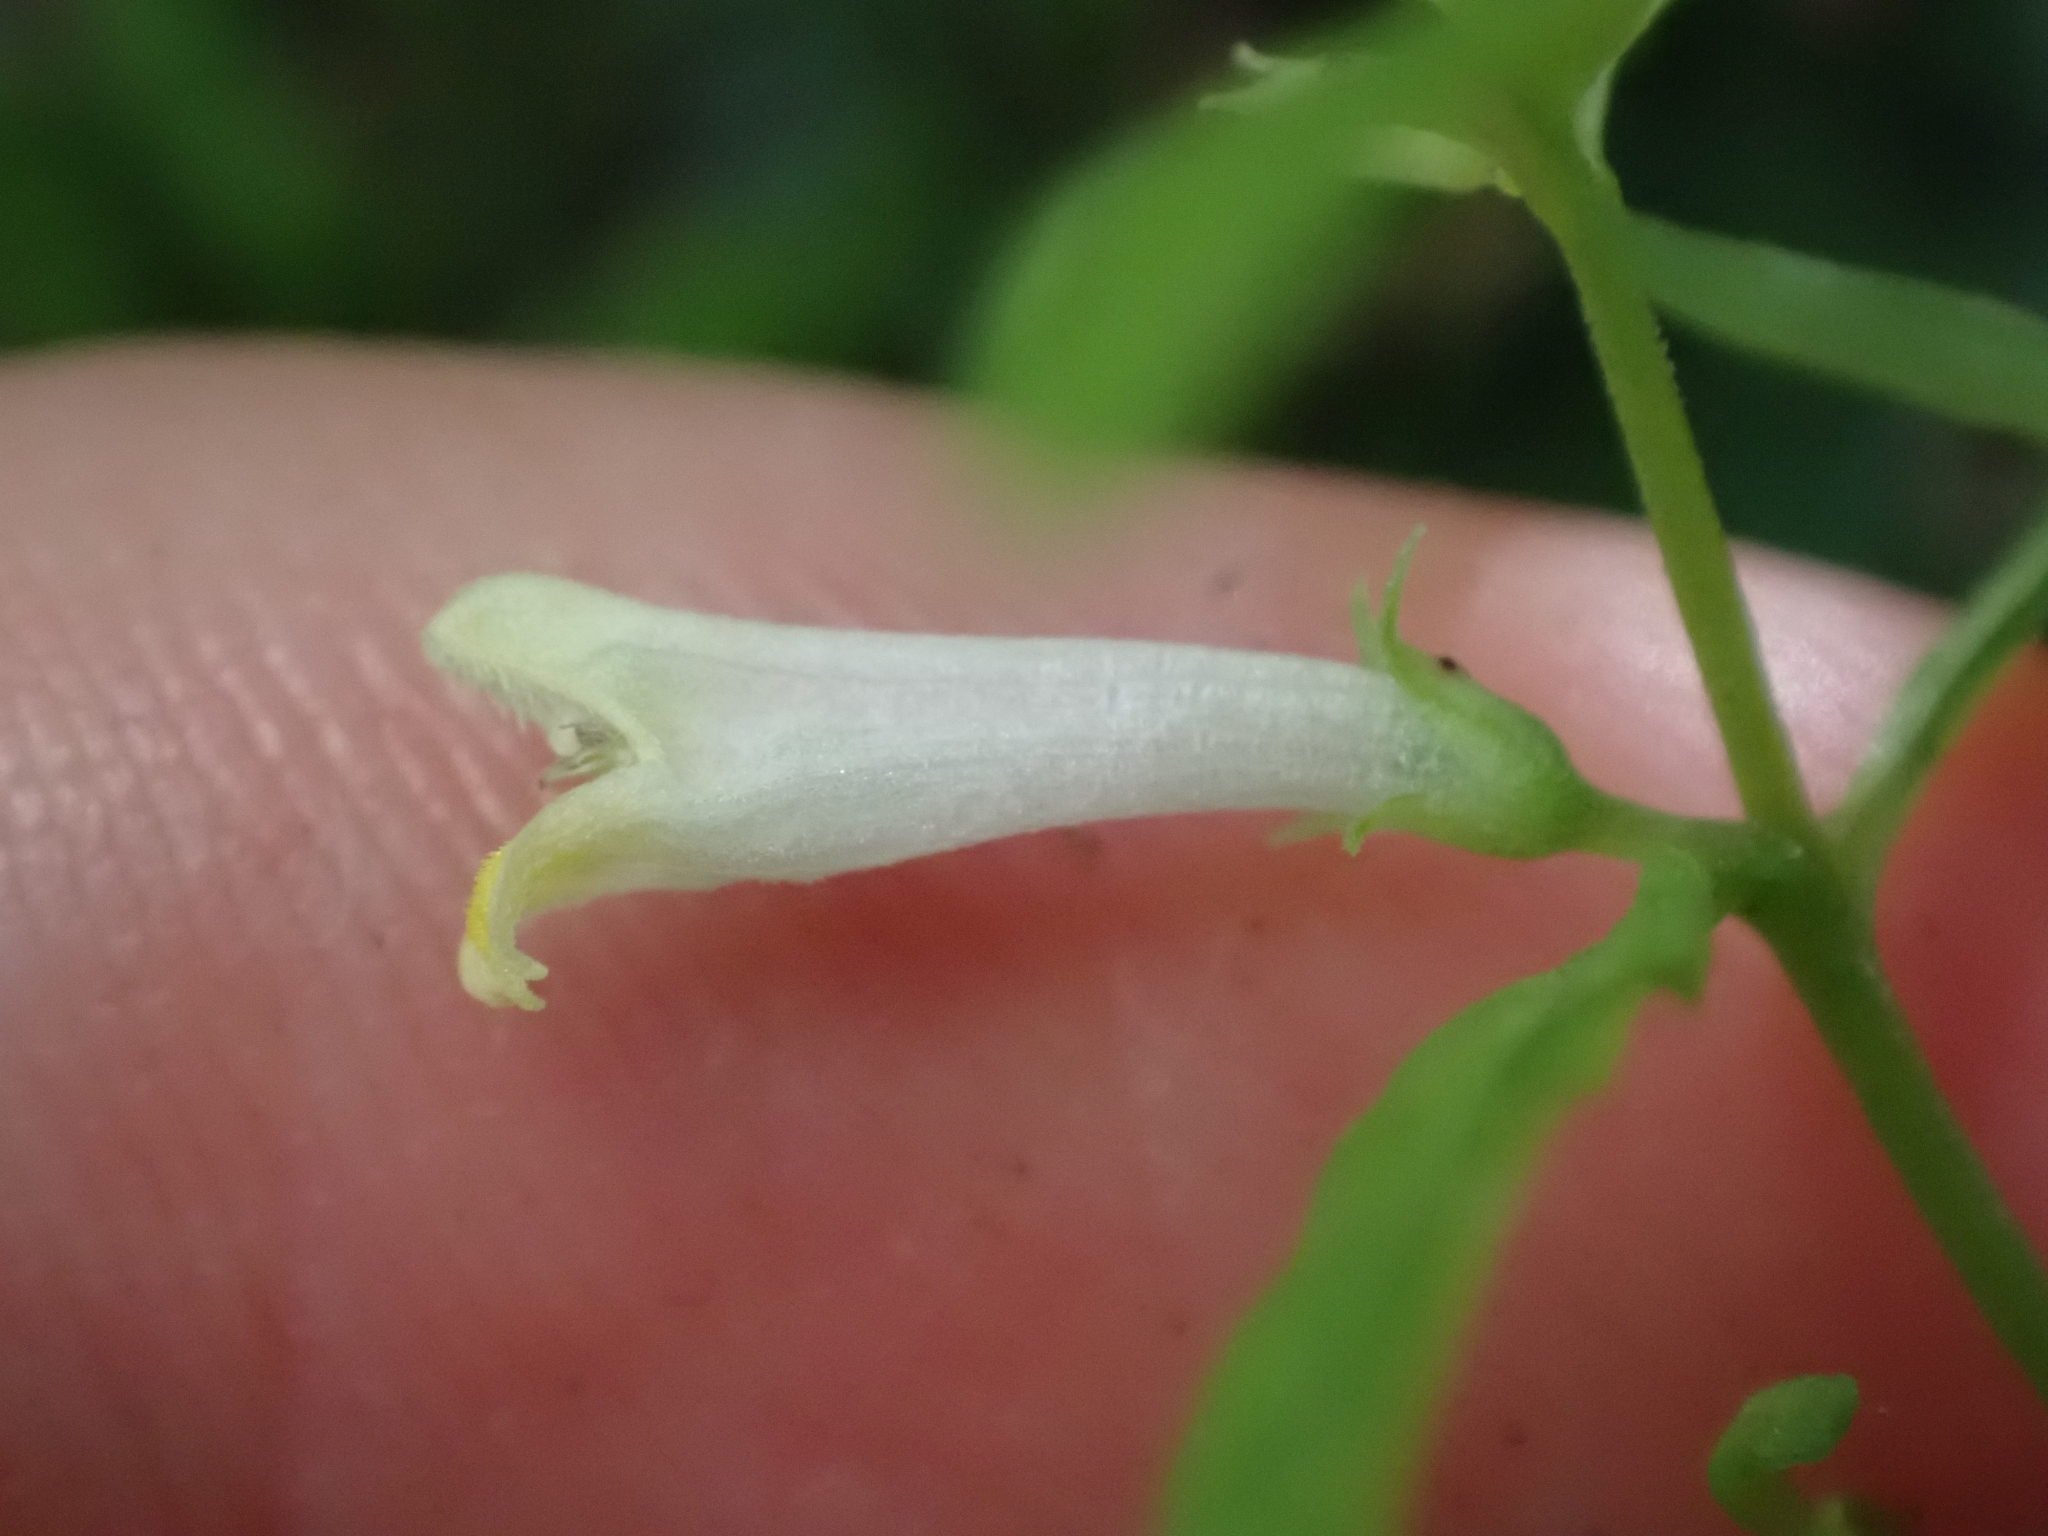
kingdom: Plantae
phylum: Tracheophyta
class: Magnoliopsida
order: Lamiales
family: Orobanchaceae
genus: Melampyrum
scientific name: Melampyrum lineare
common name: American cow-wheat
